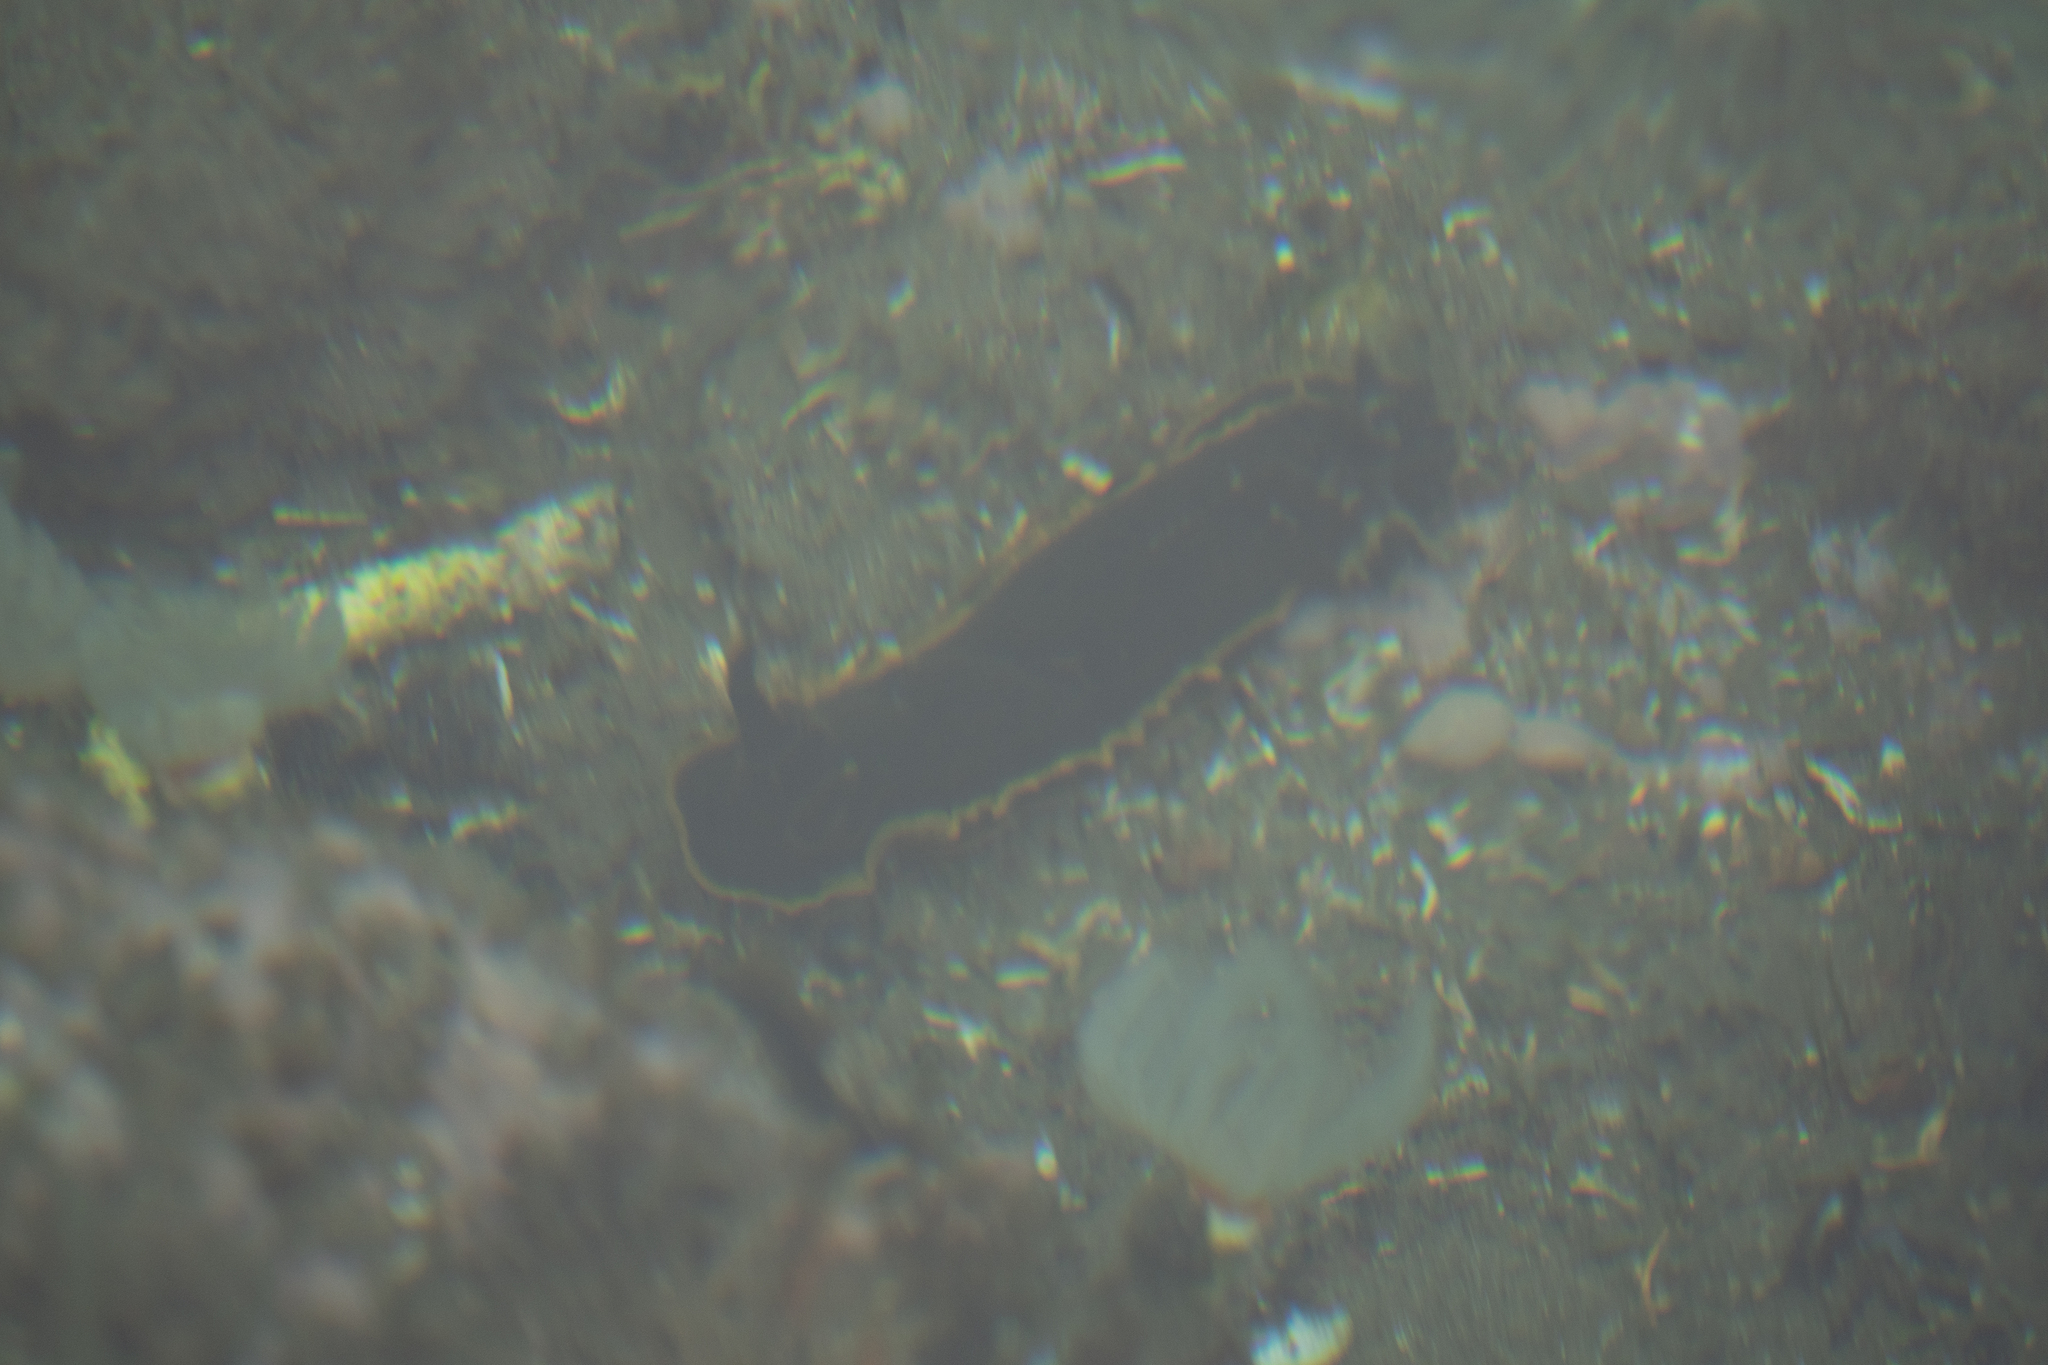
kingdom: Animalia
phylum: Mollusca
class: Gastropoda
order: Nudibranchia
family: Dendrodorididae
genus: Dendrodoris
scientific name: Dendrodoris limbata
